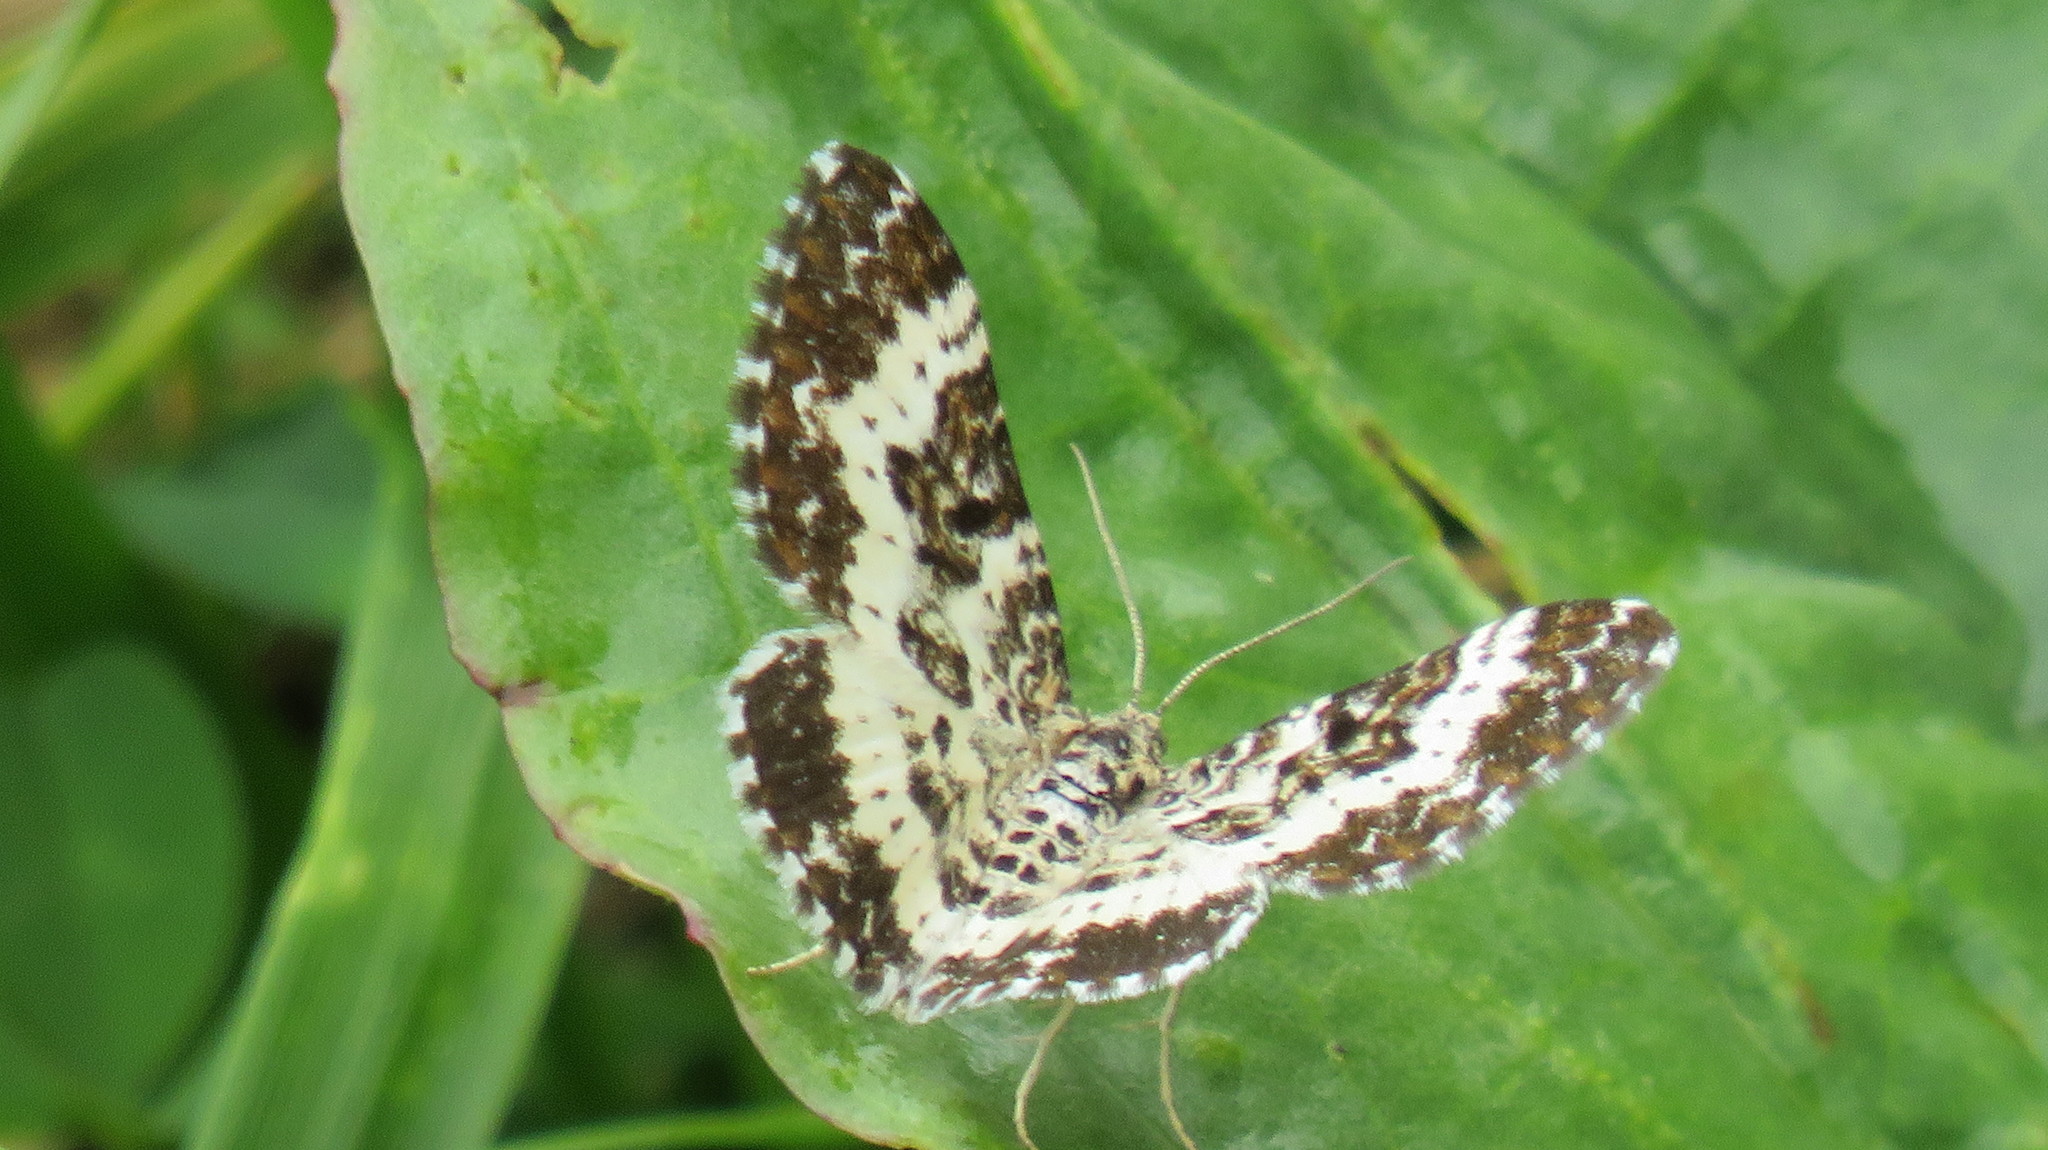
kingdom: Animalia
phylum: Arthropoda
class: Insecta
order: Lepidoptera
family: Geometridae
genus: Epirrhoe
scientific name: Epirrhoe tristata
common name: Small argent & sable
